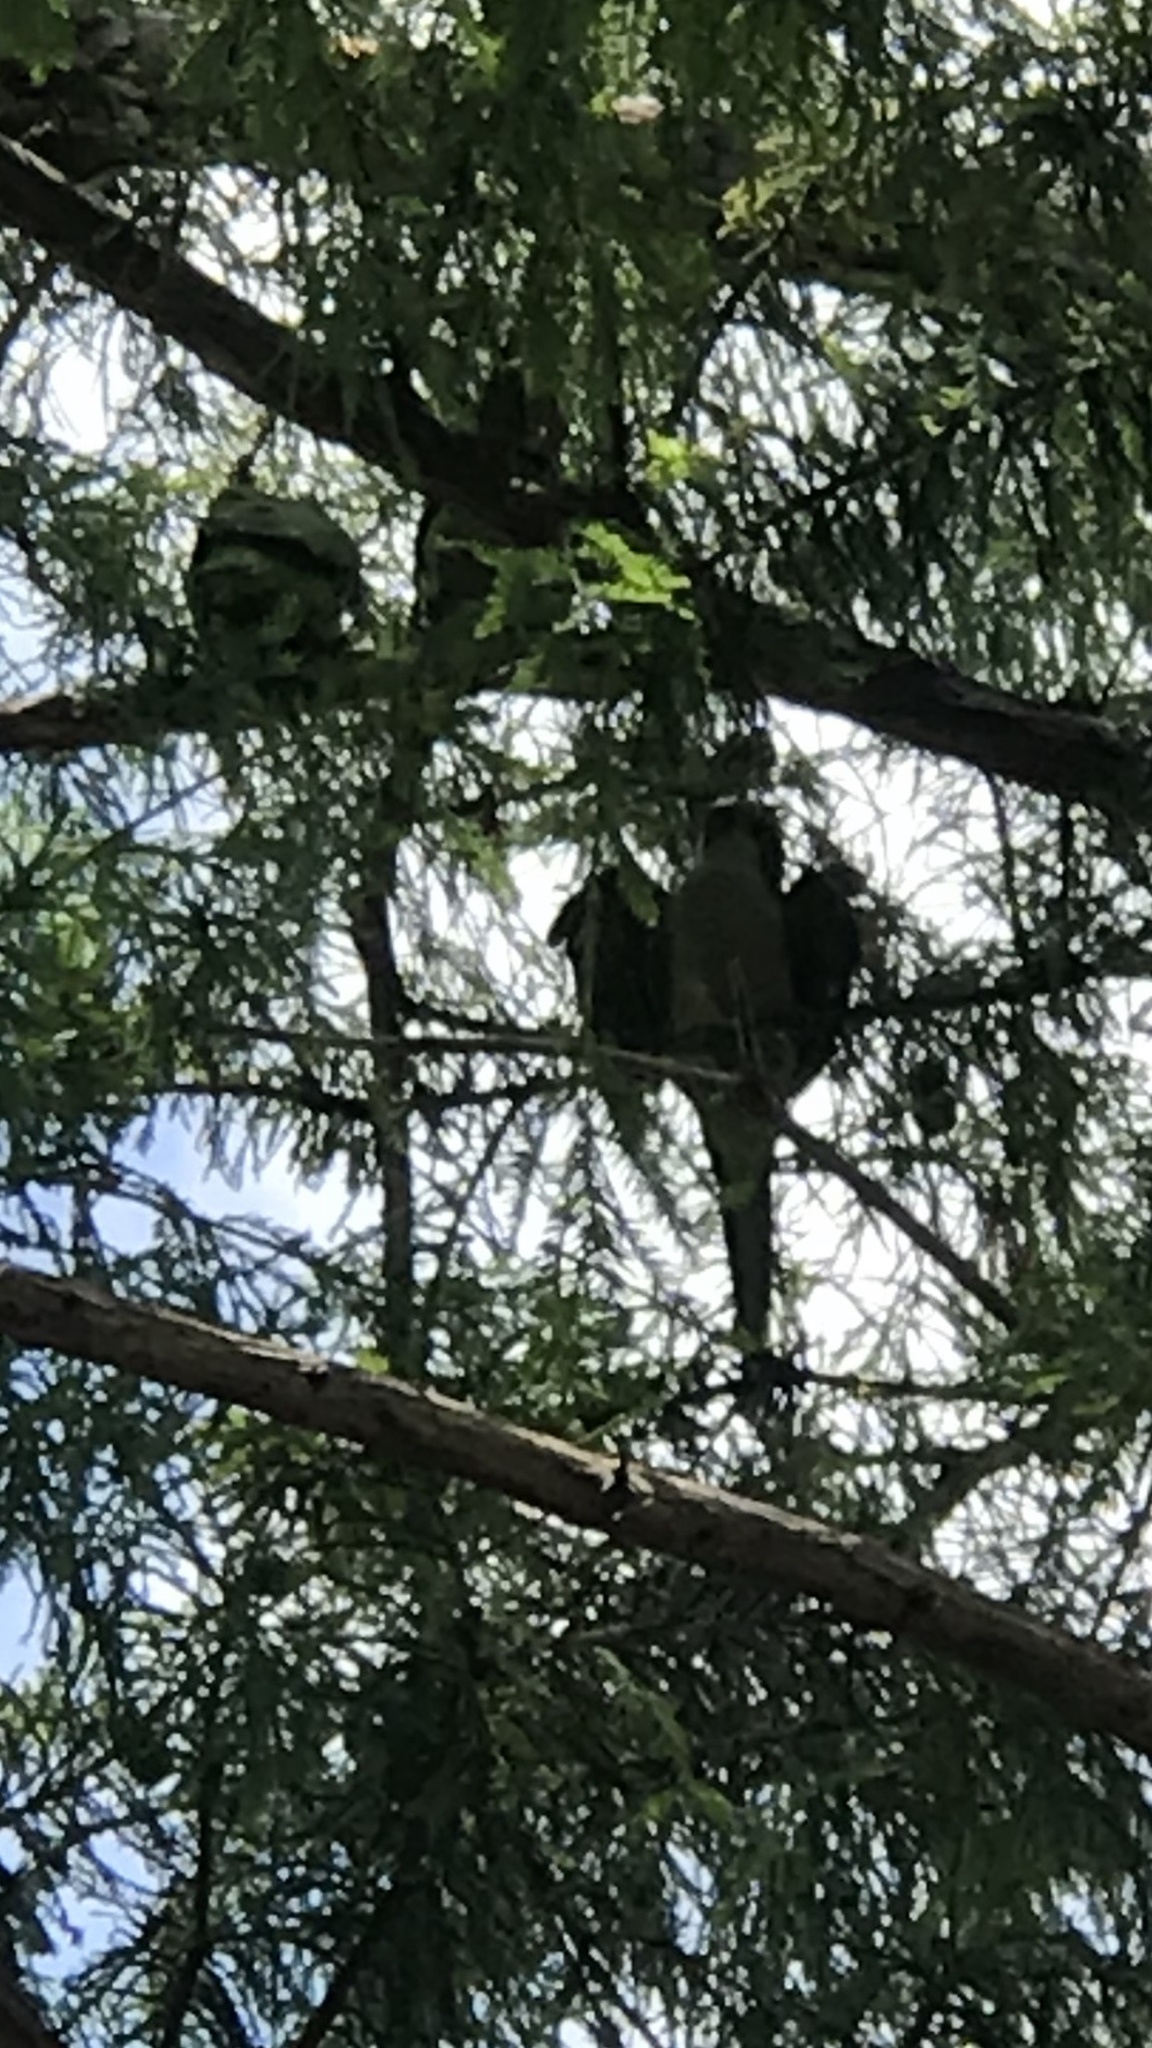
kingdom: Animalia
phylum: Chordata
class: Aves
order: Psittaciformes
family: Psittacidae
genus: Myiopsitta
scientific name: Myiopsitta monachus
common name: Monk parakeet
